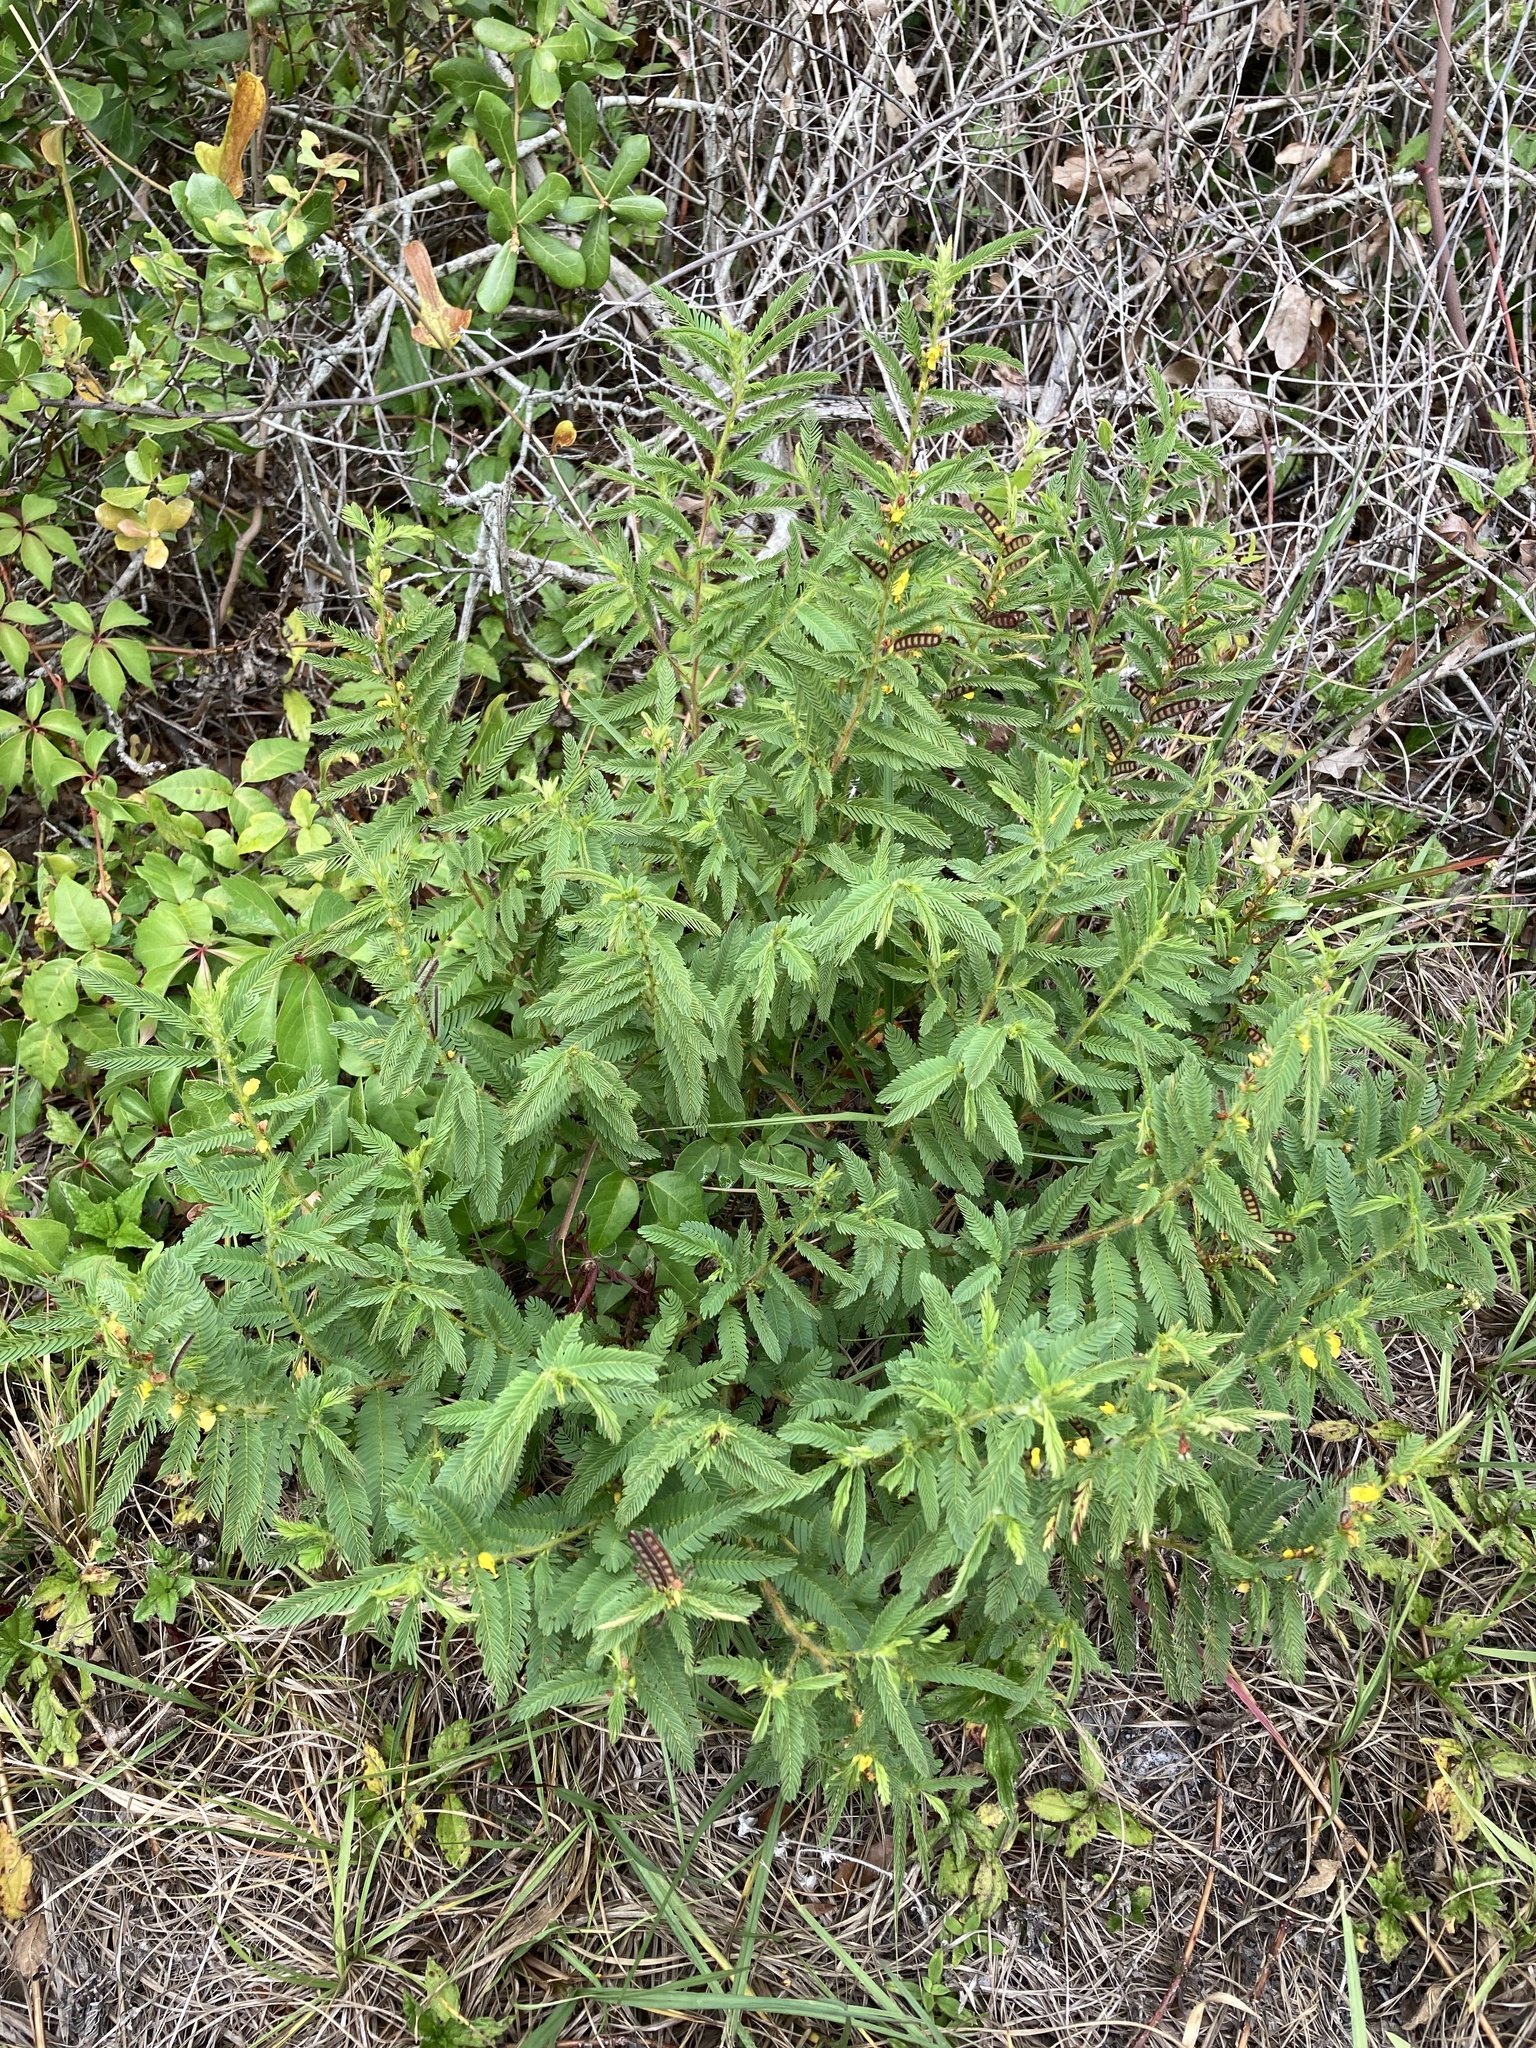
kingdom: Plantae
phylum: Tracheophyta
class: Magnoliopsida
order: Fabales
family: Fabaceae
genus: Chamaecrista
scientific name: Chamaecrista nictitans
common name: Sensitive cassia
